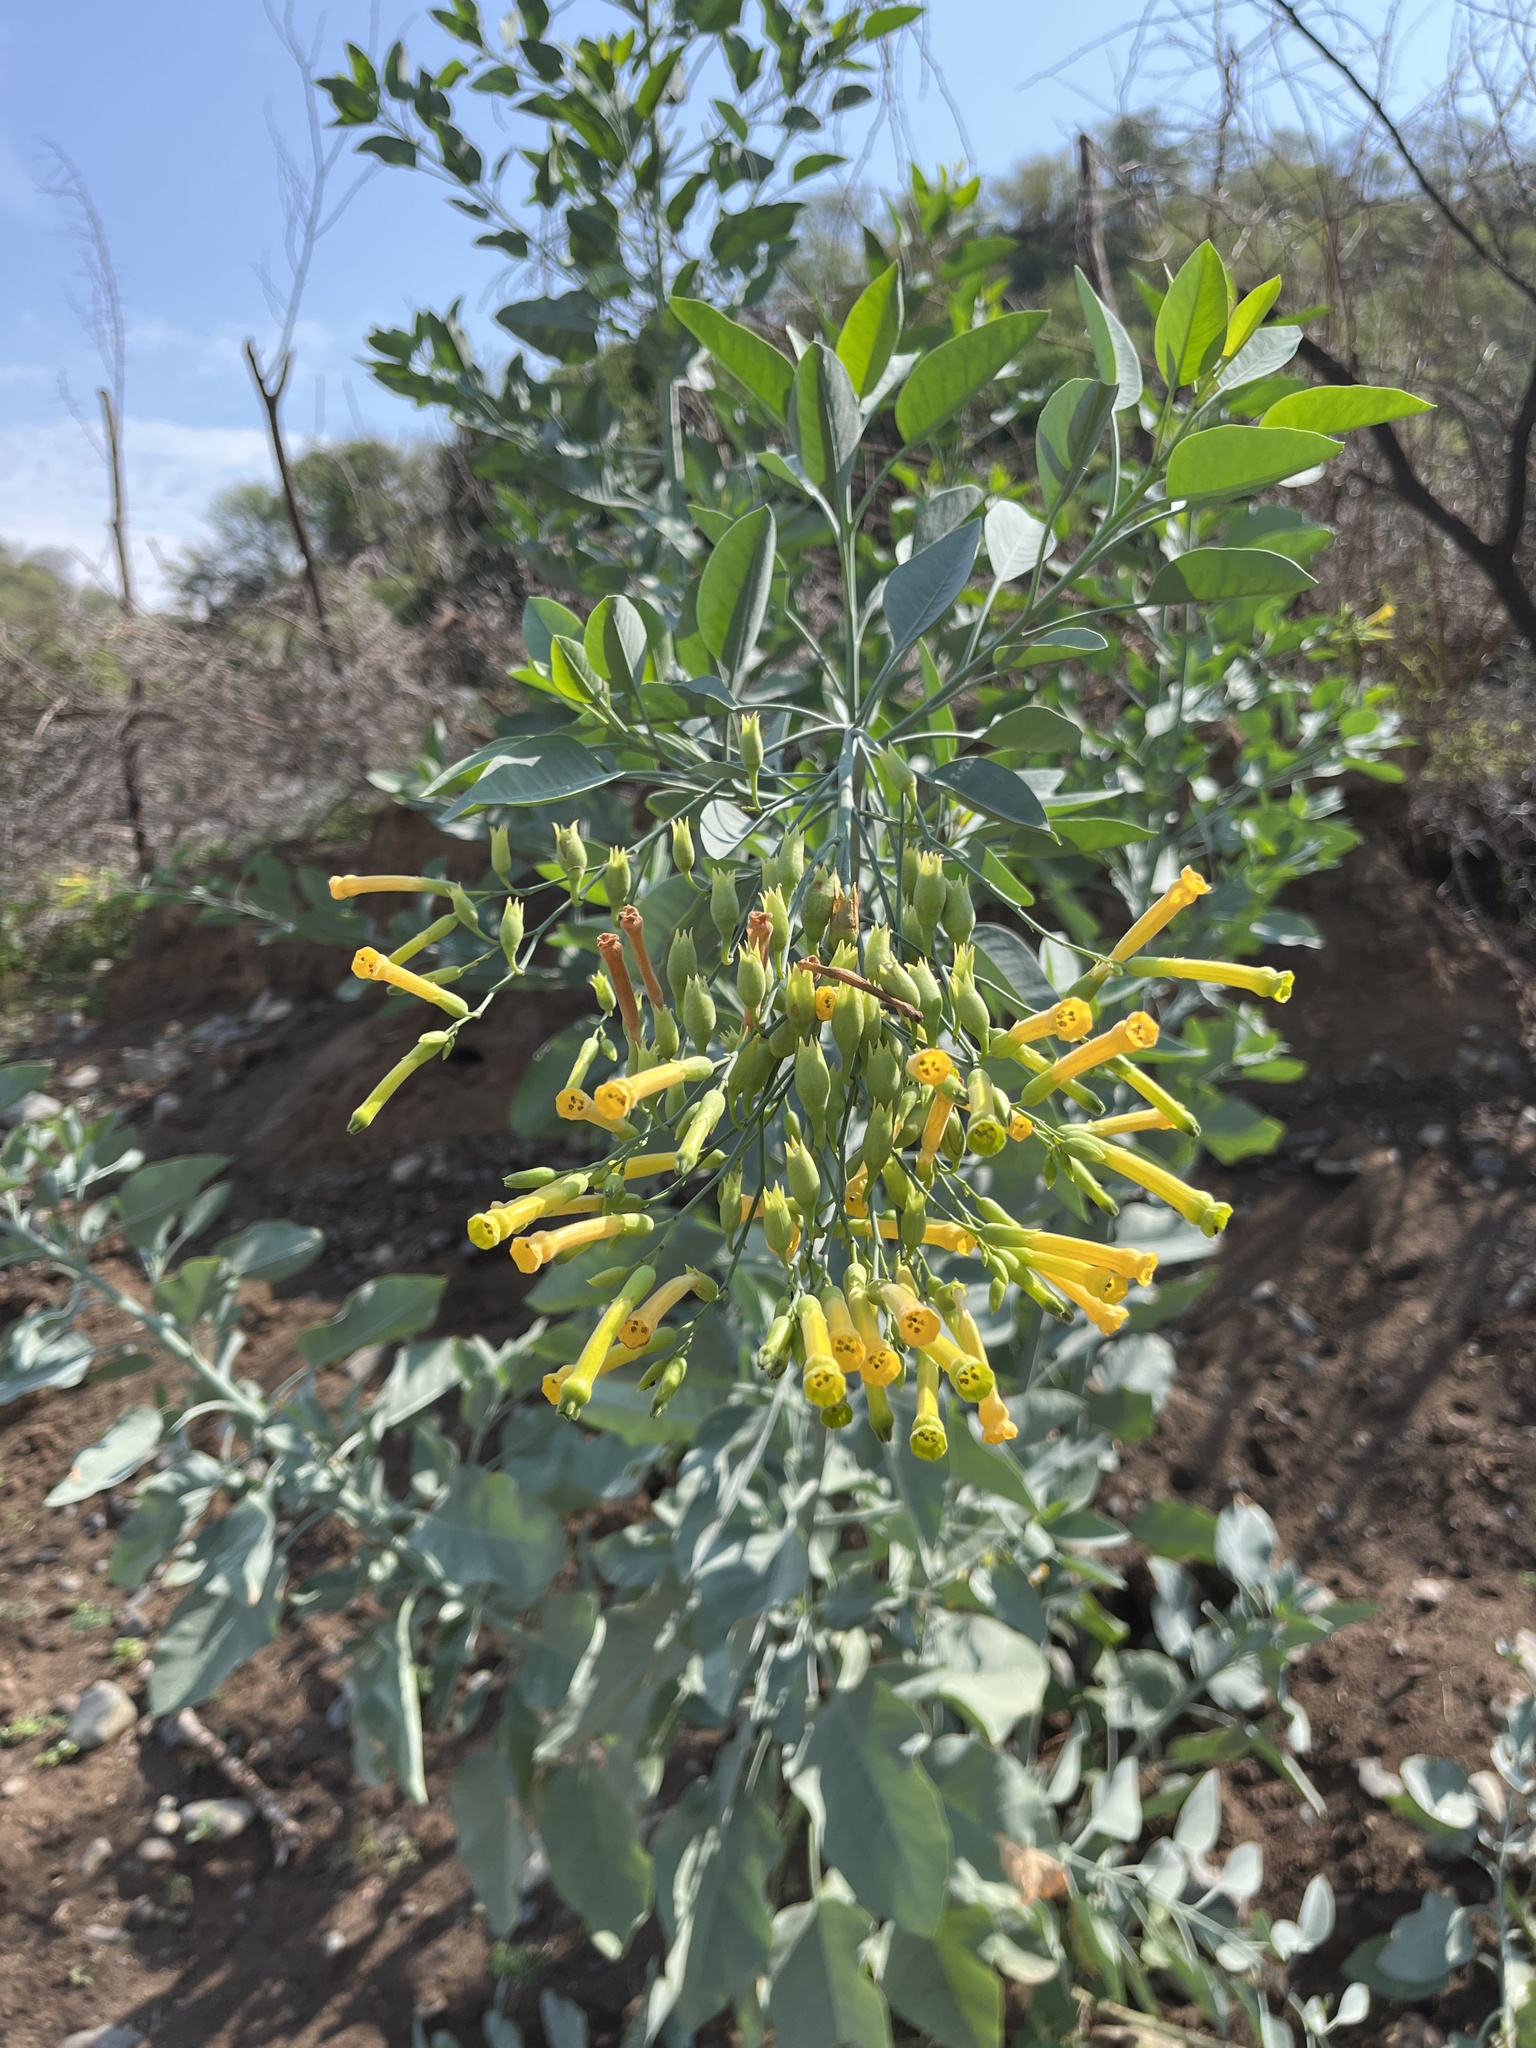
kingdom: Plantae
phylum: Tracheophyta
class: Magnoliopsida
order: Solanales
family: Solanaceae
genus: Nicotiana
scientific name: Nicotiana glauca
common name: Tree tobacco
